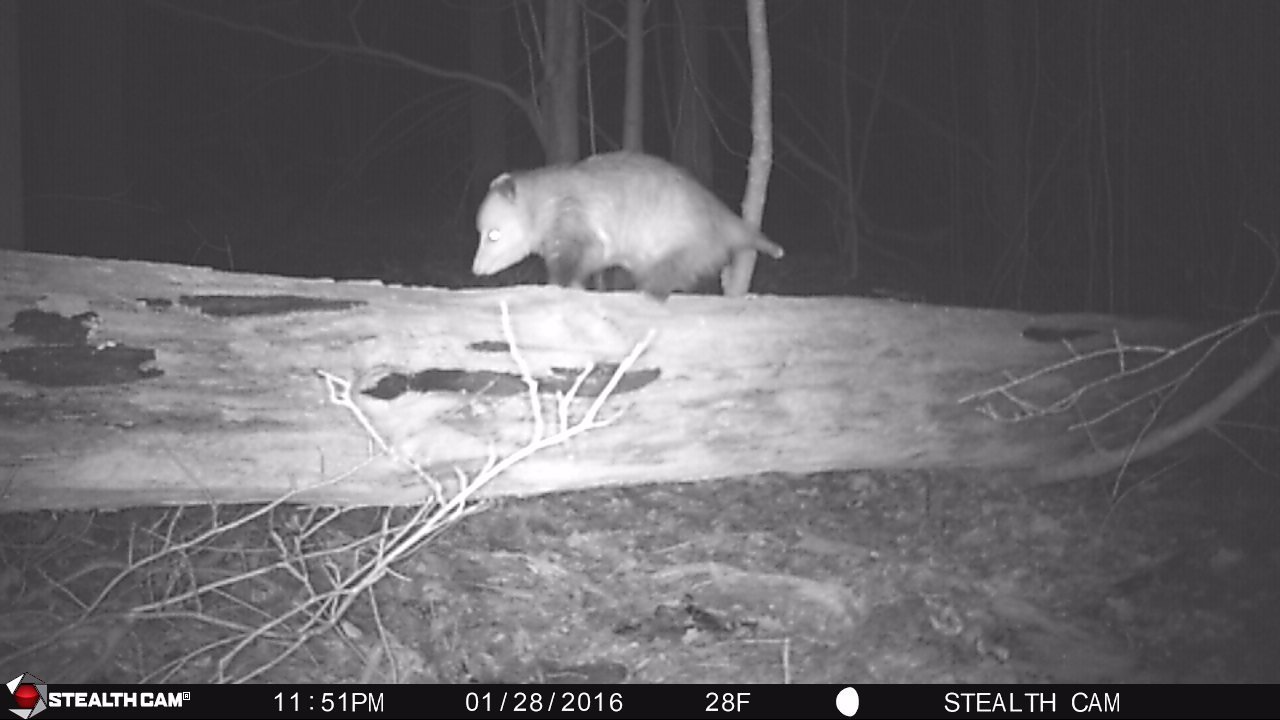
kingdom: Animalia
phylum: Chordata
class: Mammalia
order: Didelphimorphia
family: Didelphidae
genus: Didelphis
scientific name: Didelphis virginiana
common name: Virginia opossum
